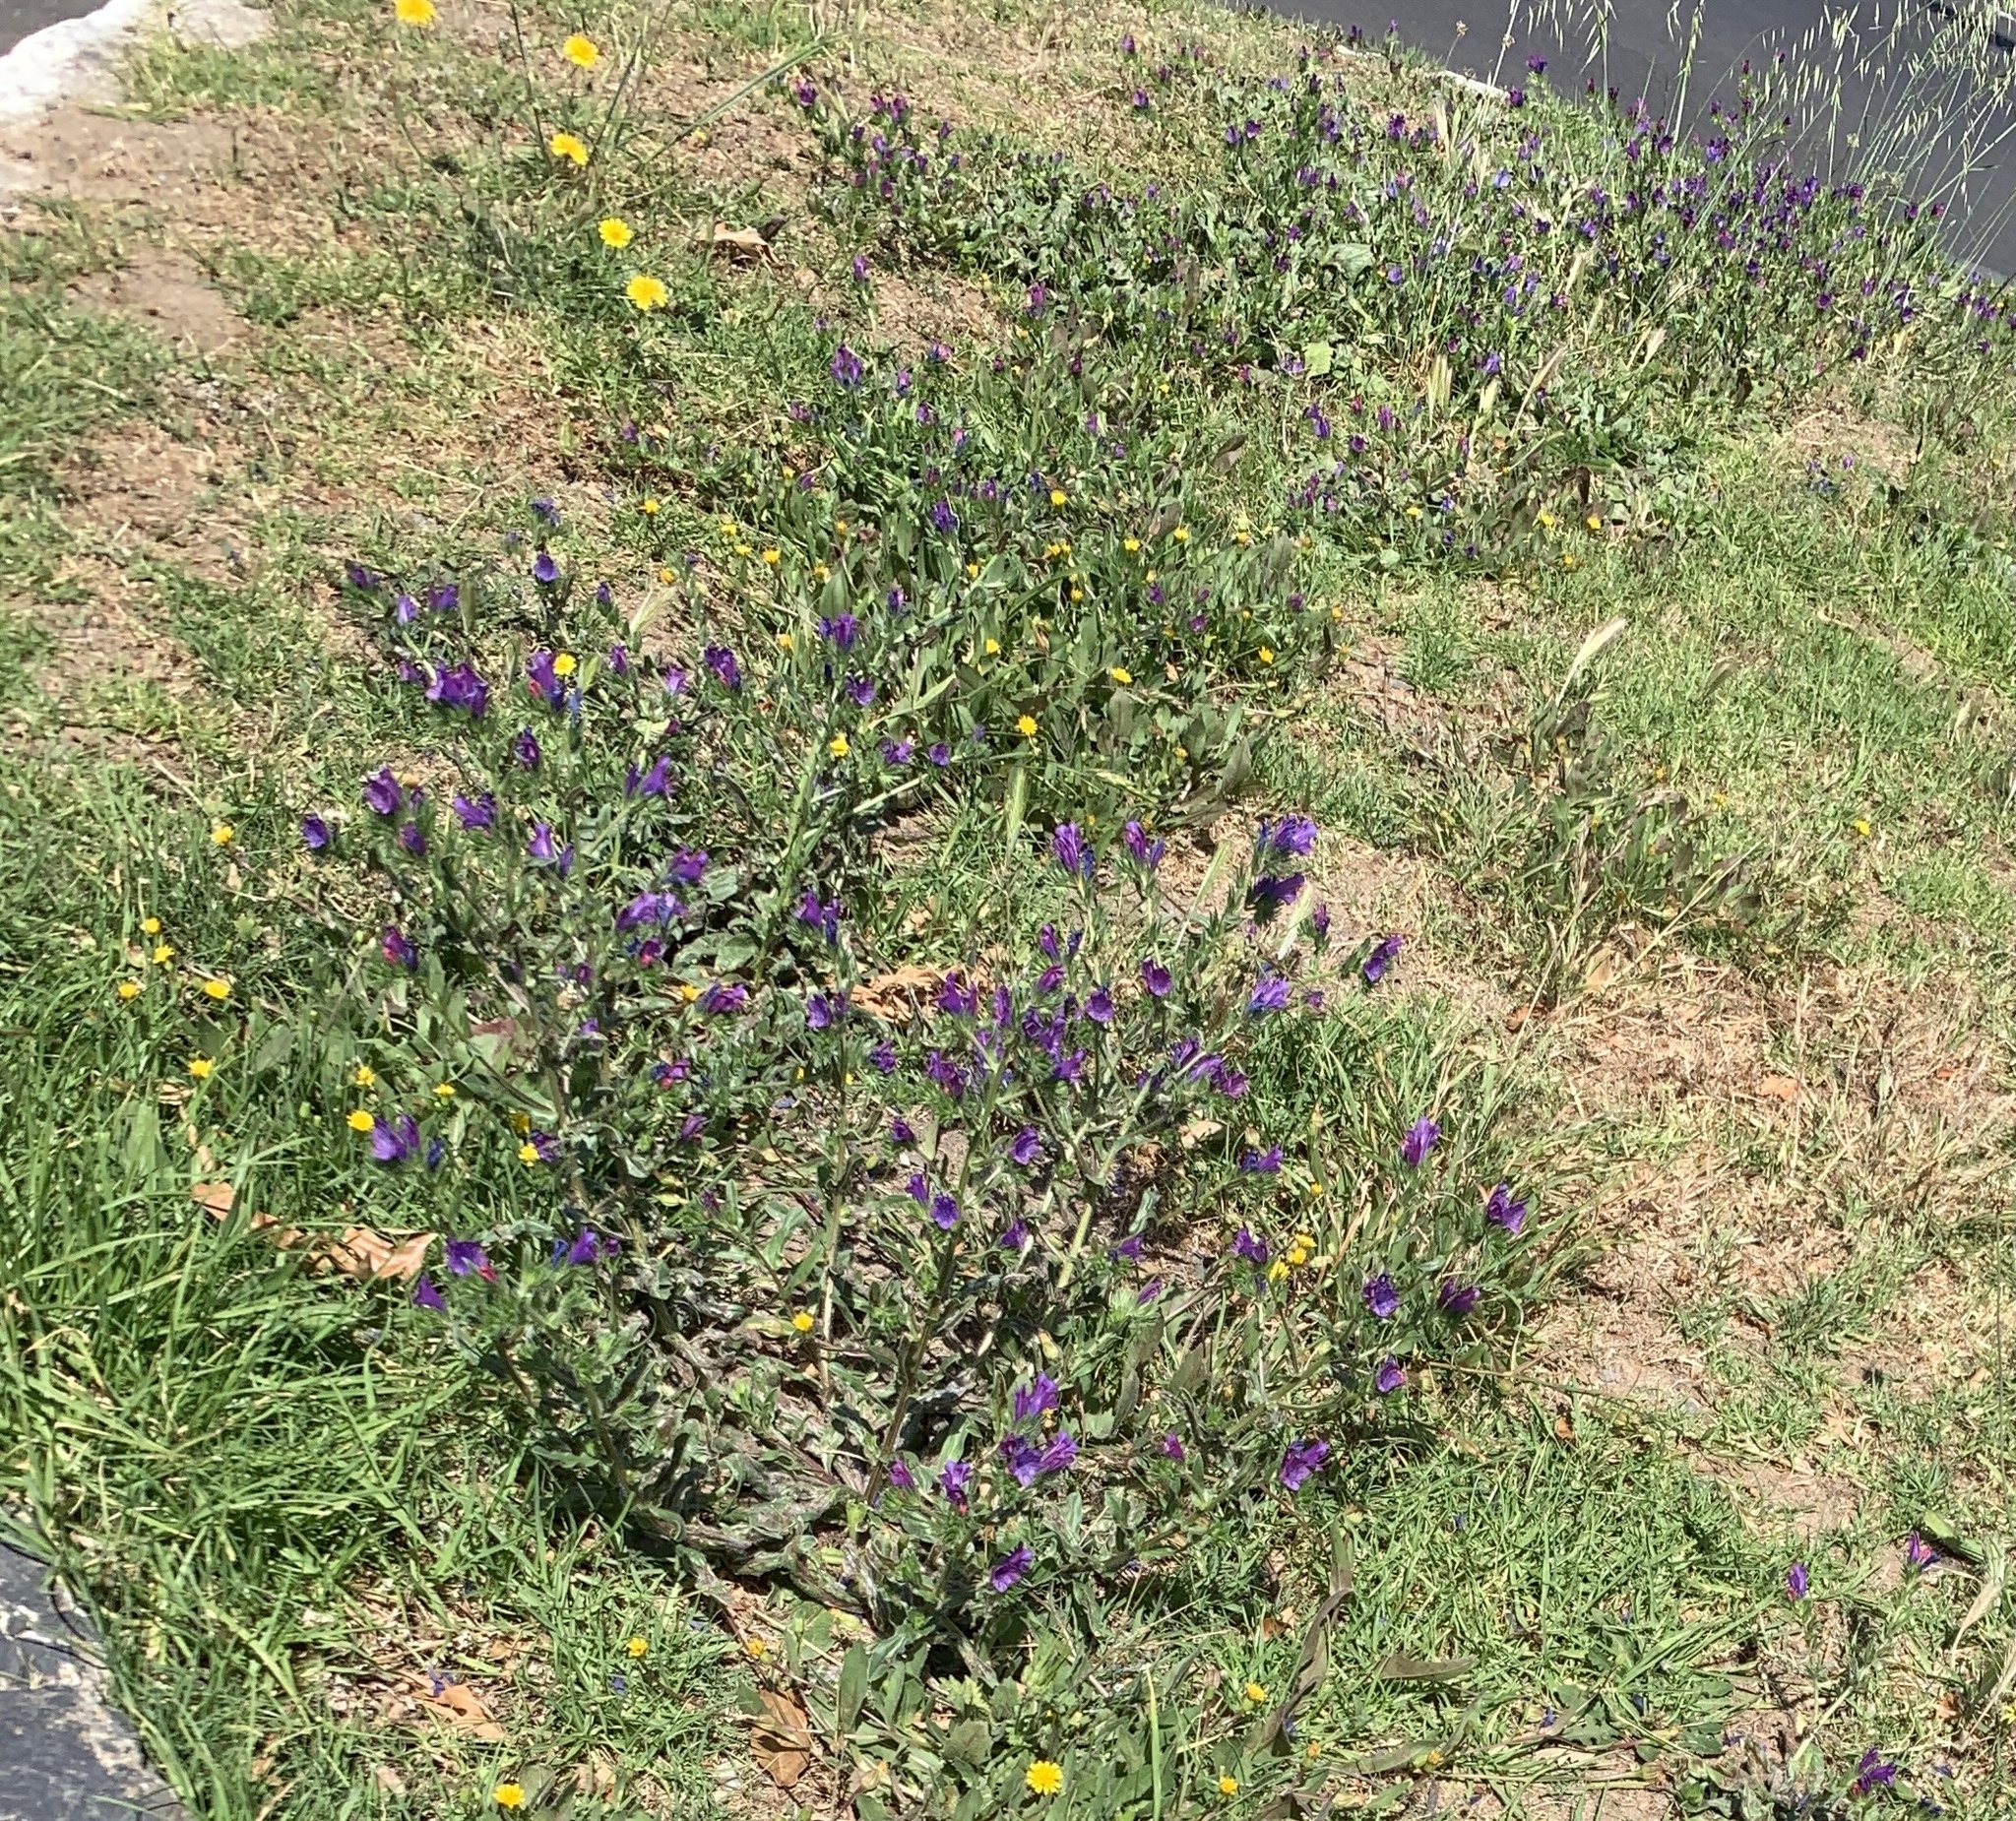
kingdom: Plantae
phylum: Tracheophyta
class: Magnoliopsida
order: Boraginales
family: Boraginaceae
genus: Echium
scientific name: Echium plantagineum
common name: Purple viper's-bugloss
